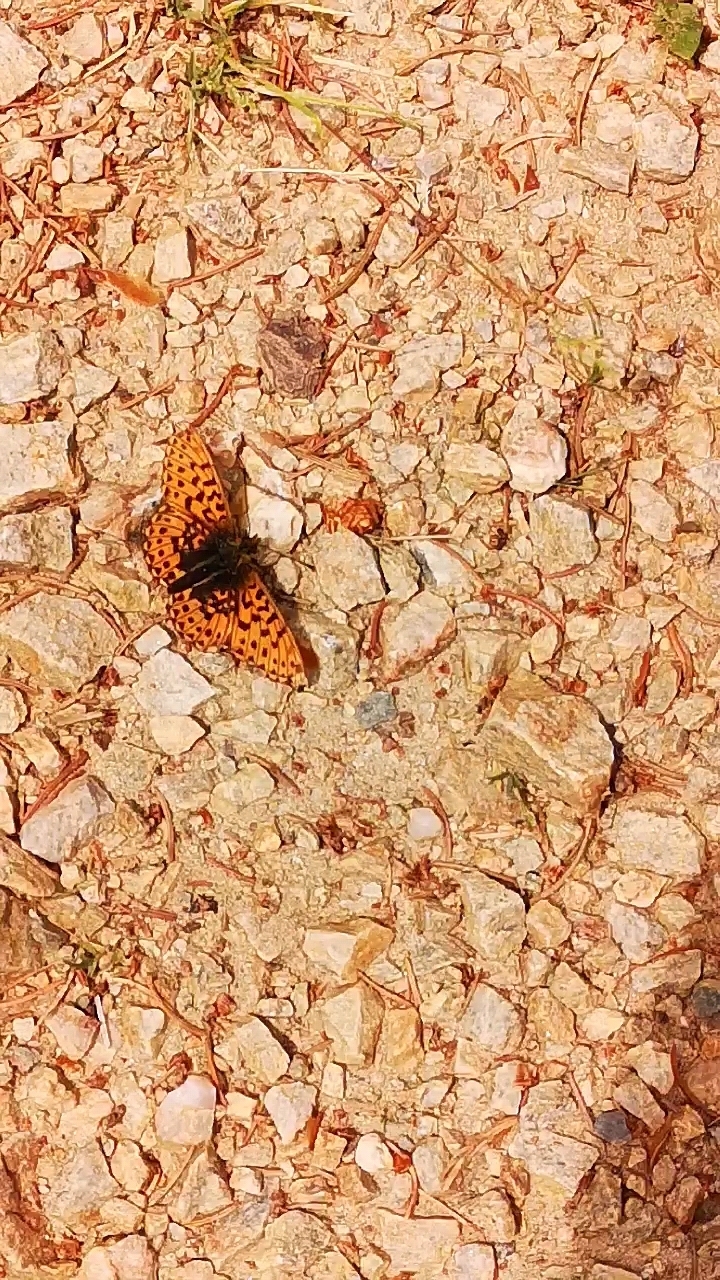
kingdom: Animalia
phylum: Arthropoda
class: Insecta
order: Lepidoptera
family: Nymphalidae
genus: Clossiana
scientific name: Clossiana euphrosyne
